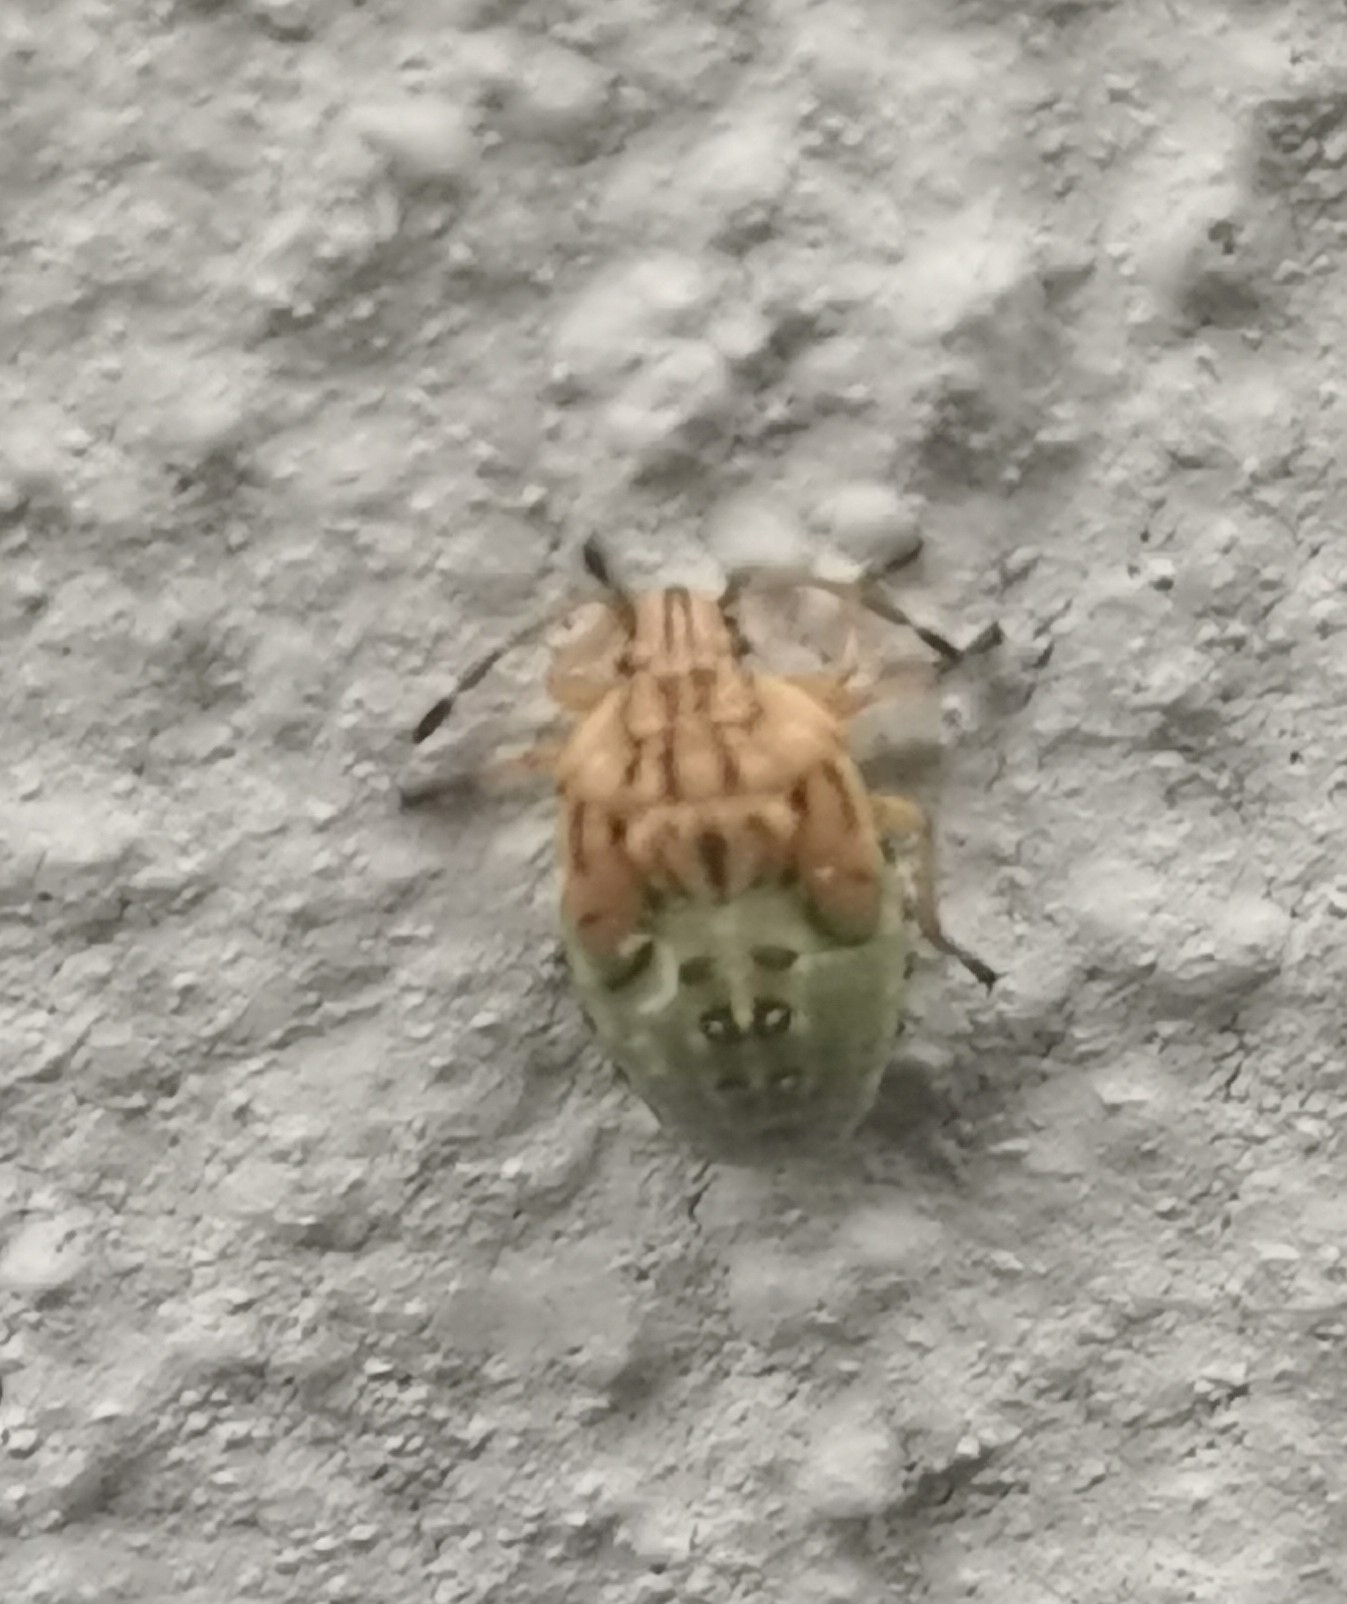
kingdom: Animalia
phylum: Arthropoda
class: Insecta
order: Hemiptera
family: Acanthosomatidae
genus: Elasmucha
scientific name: Elasmucha grisea
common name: Parent bug
